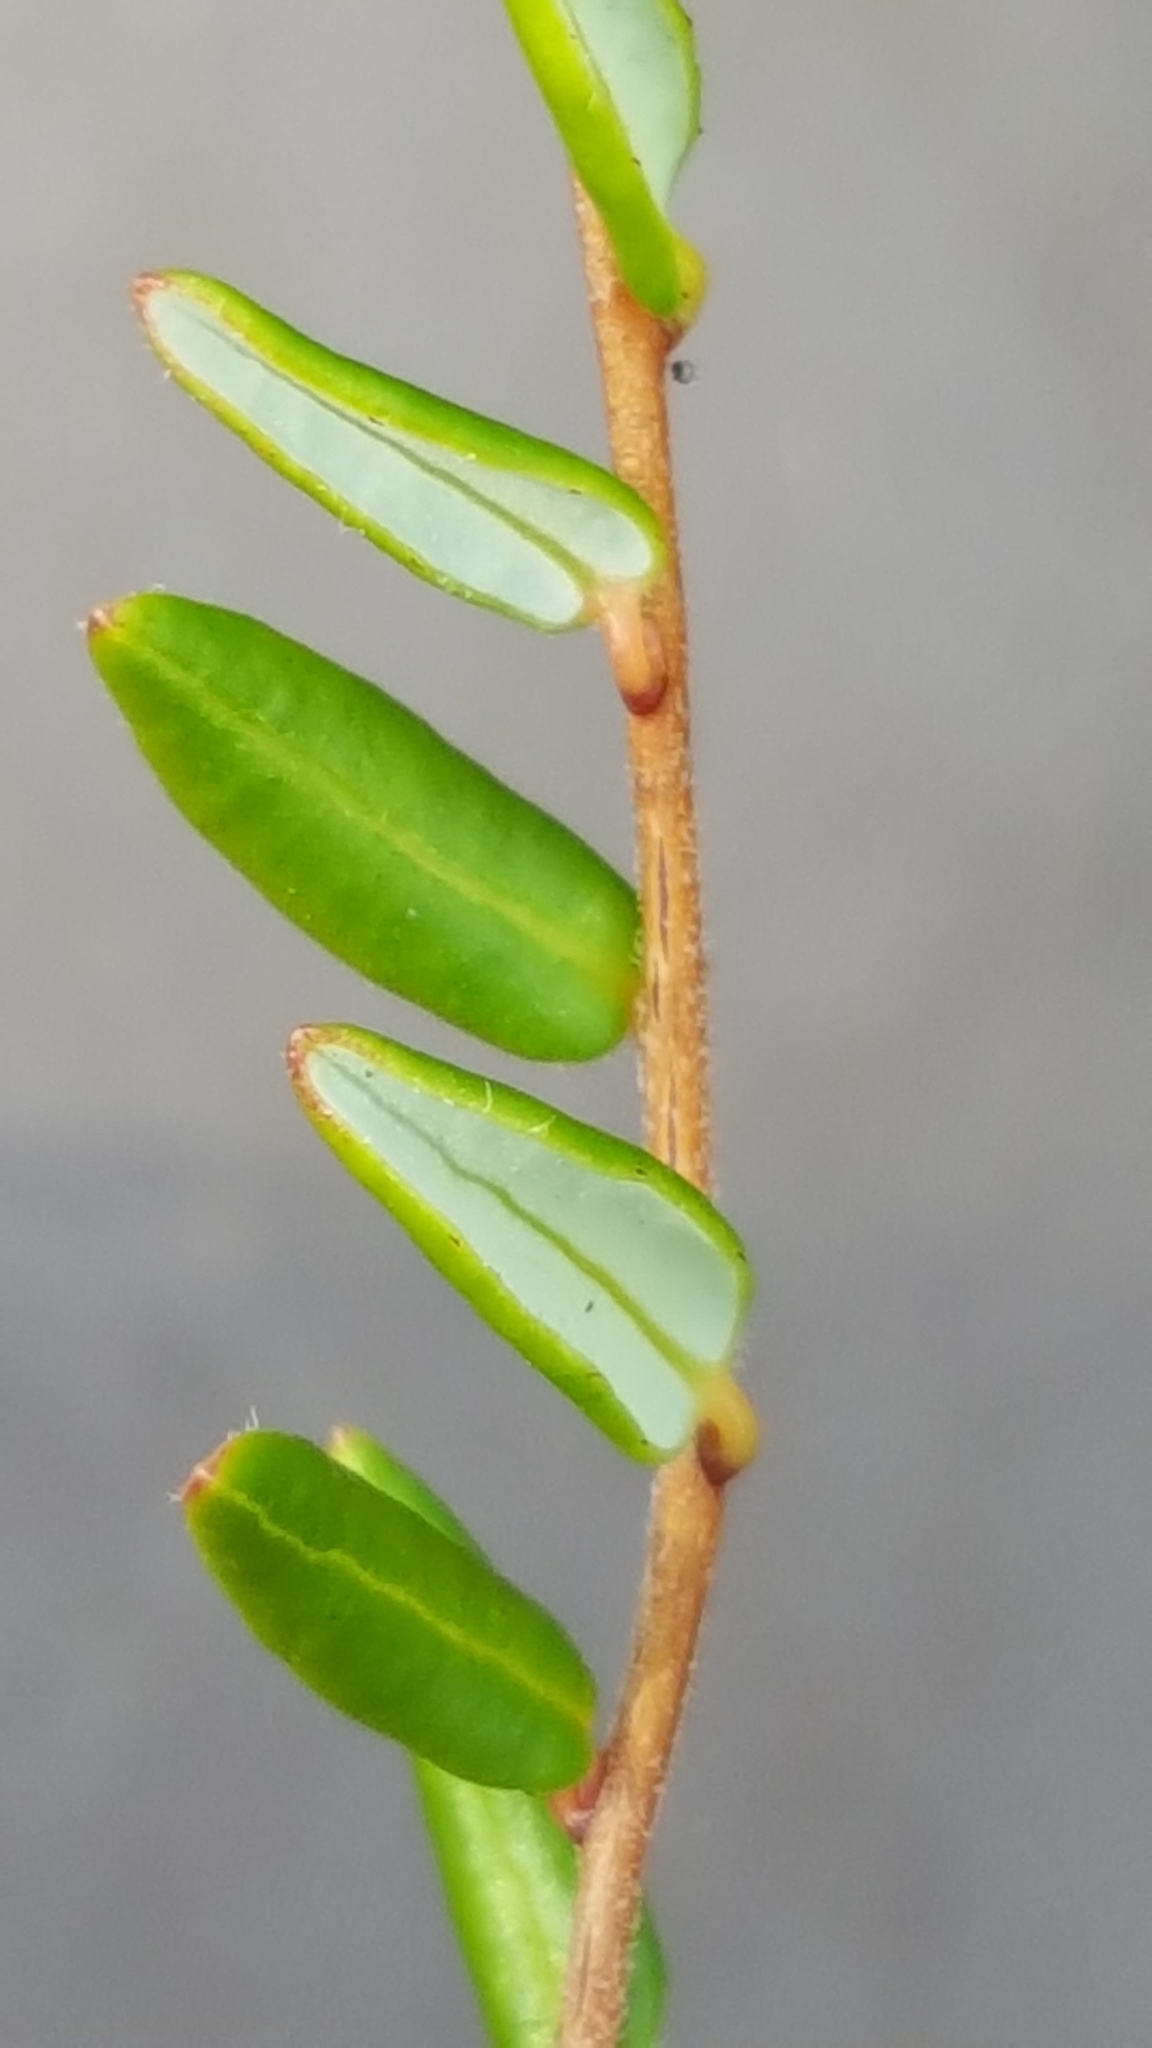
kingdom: Plantae
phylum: Tracheophyta
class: Magnoliopsida
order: Ericales
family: Ericaceae
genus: Vaccinium
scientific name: Vaccinium oxycoccos
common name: Cranberry
